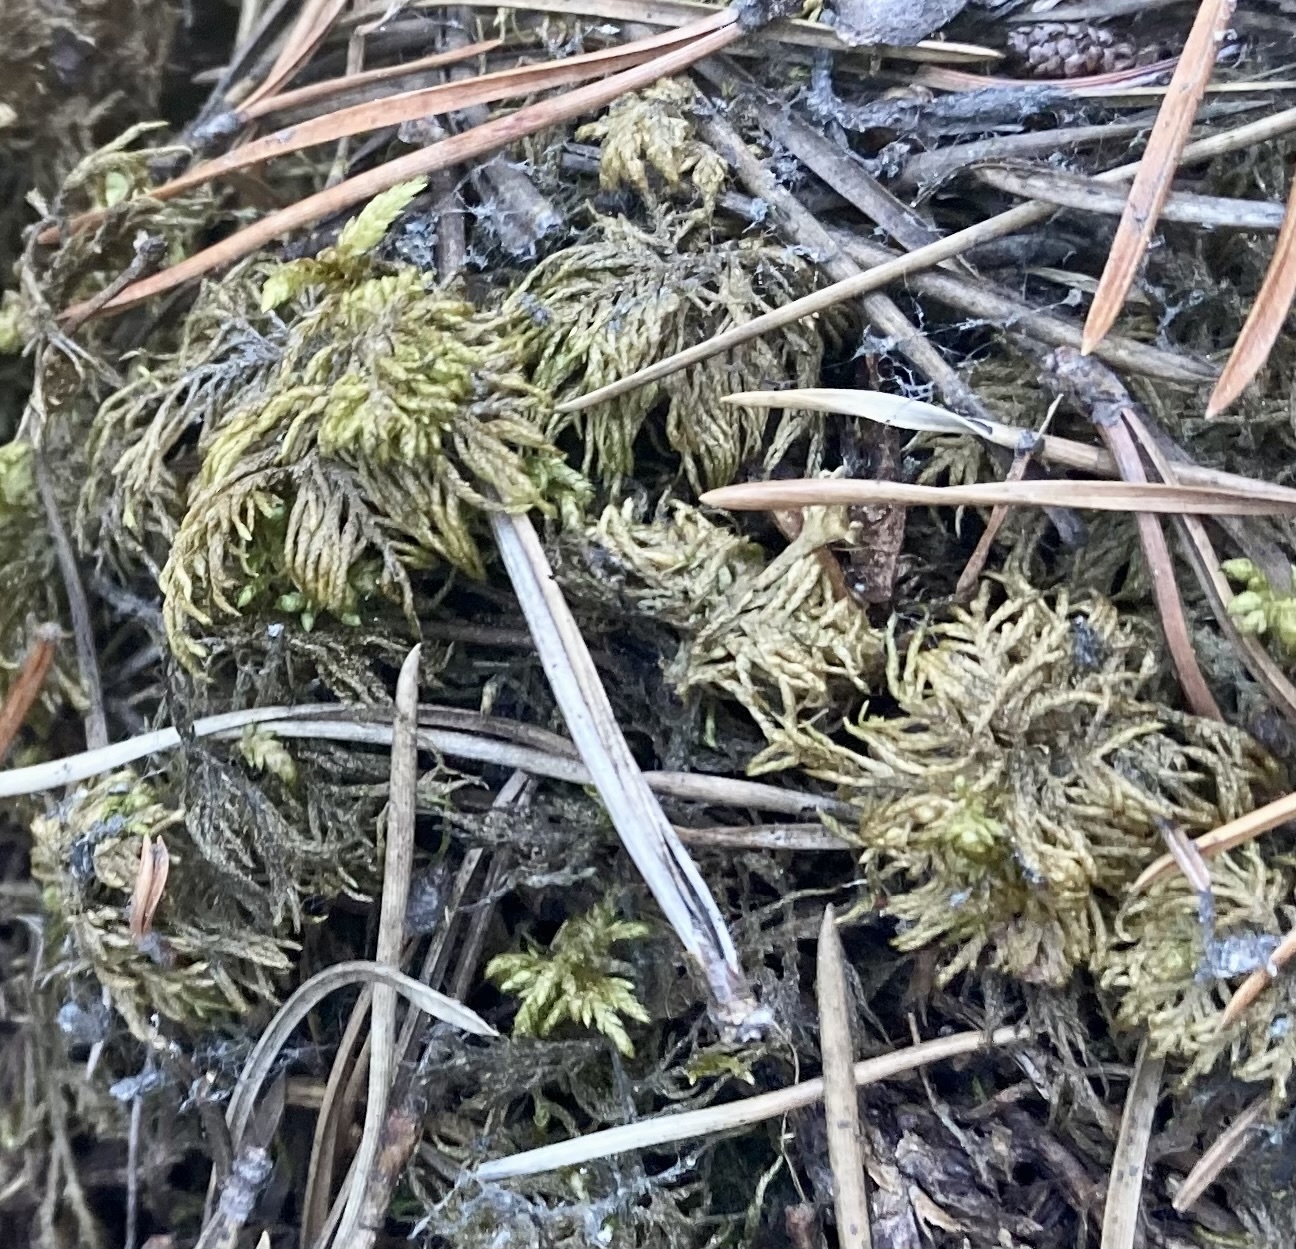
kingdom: Plantae
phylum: Bryophyta
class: Bryopsida
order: Hypnales
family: Hylocomiaceae
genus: Hylocomium
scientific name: Hylocomium splendens
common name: Stairstep moss
